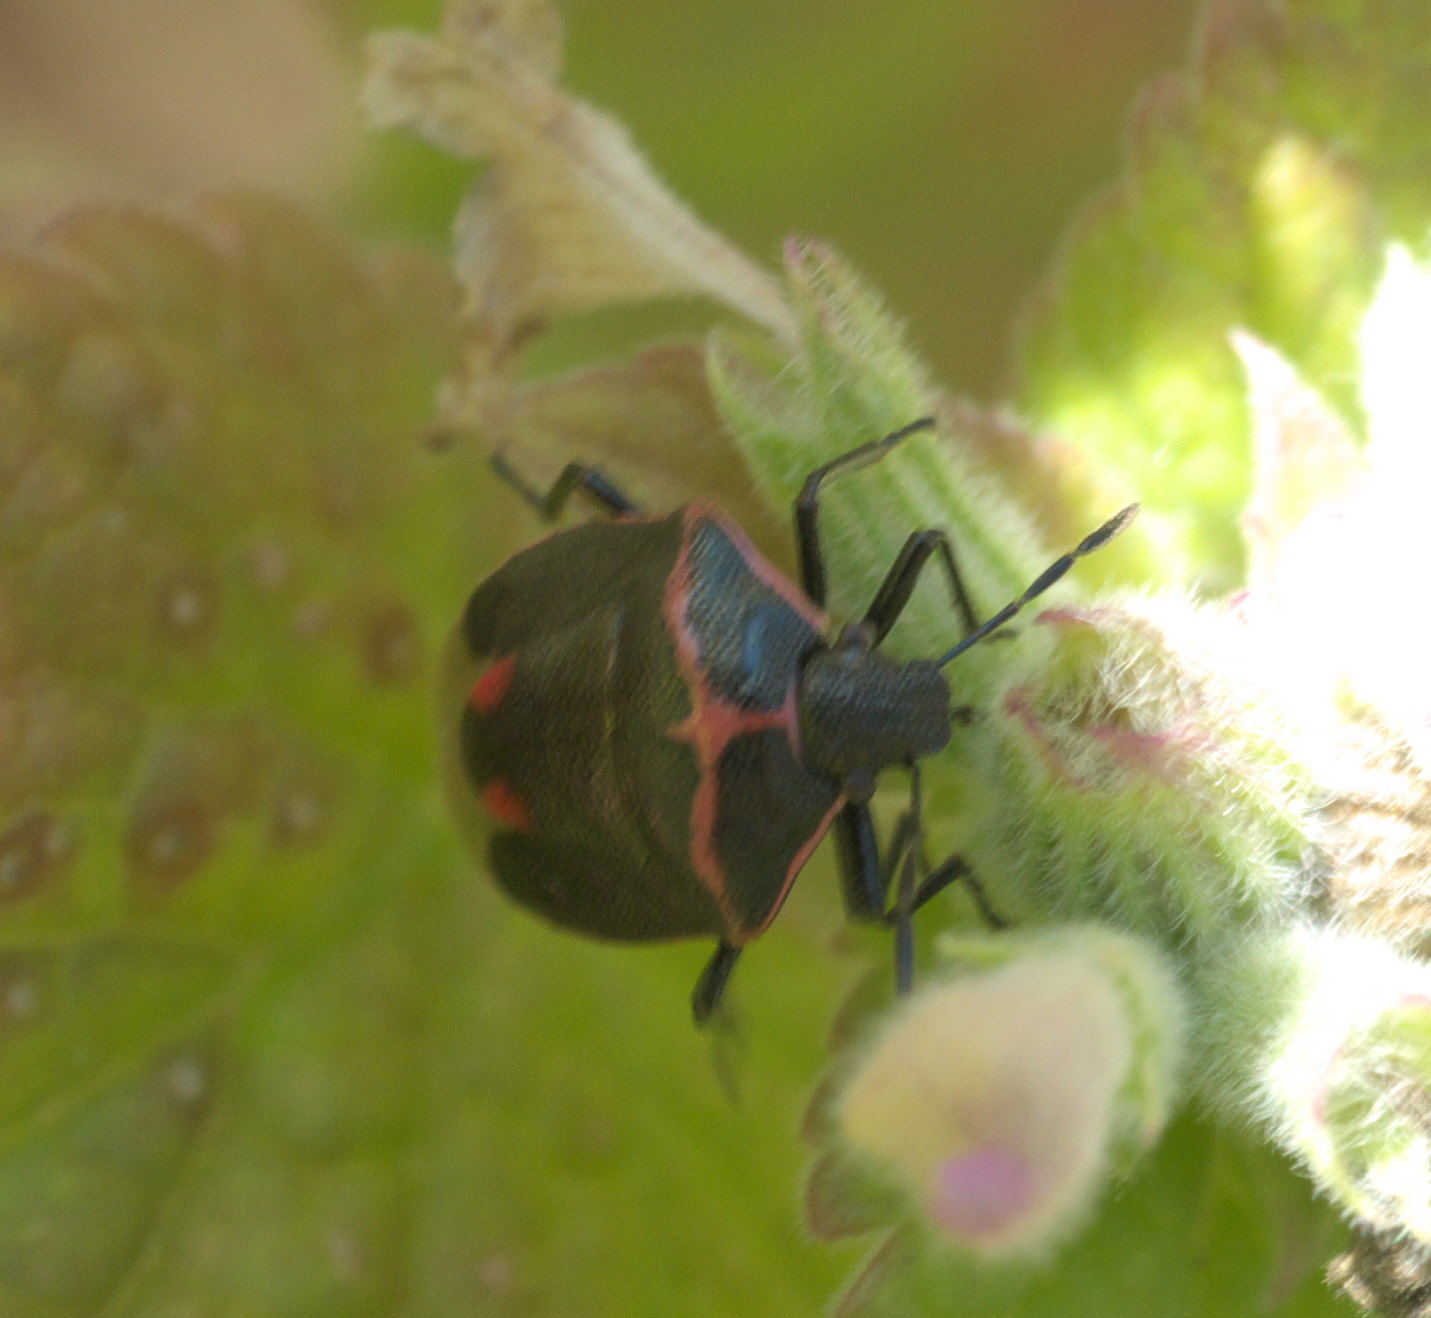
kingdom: Animalia
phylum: Arthropoda
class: Insecta
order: Hemiptera
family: Pentatomidae
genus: Cosmopepla
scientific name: Cosmopepla lintneriana
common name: Twice-stabbed stink bug
